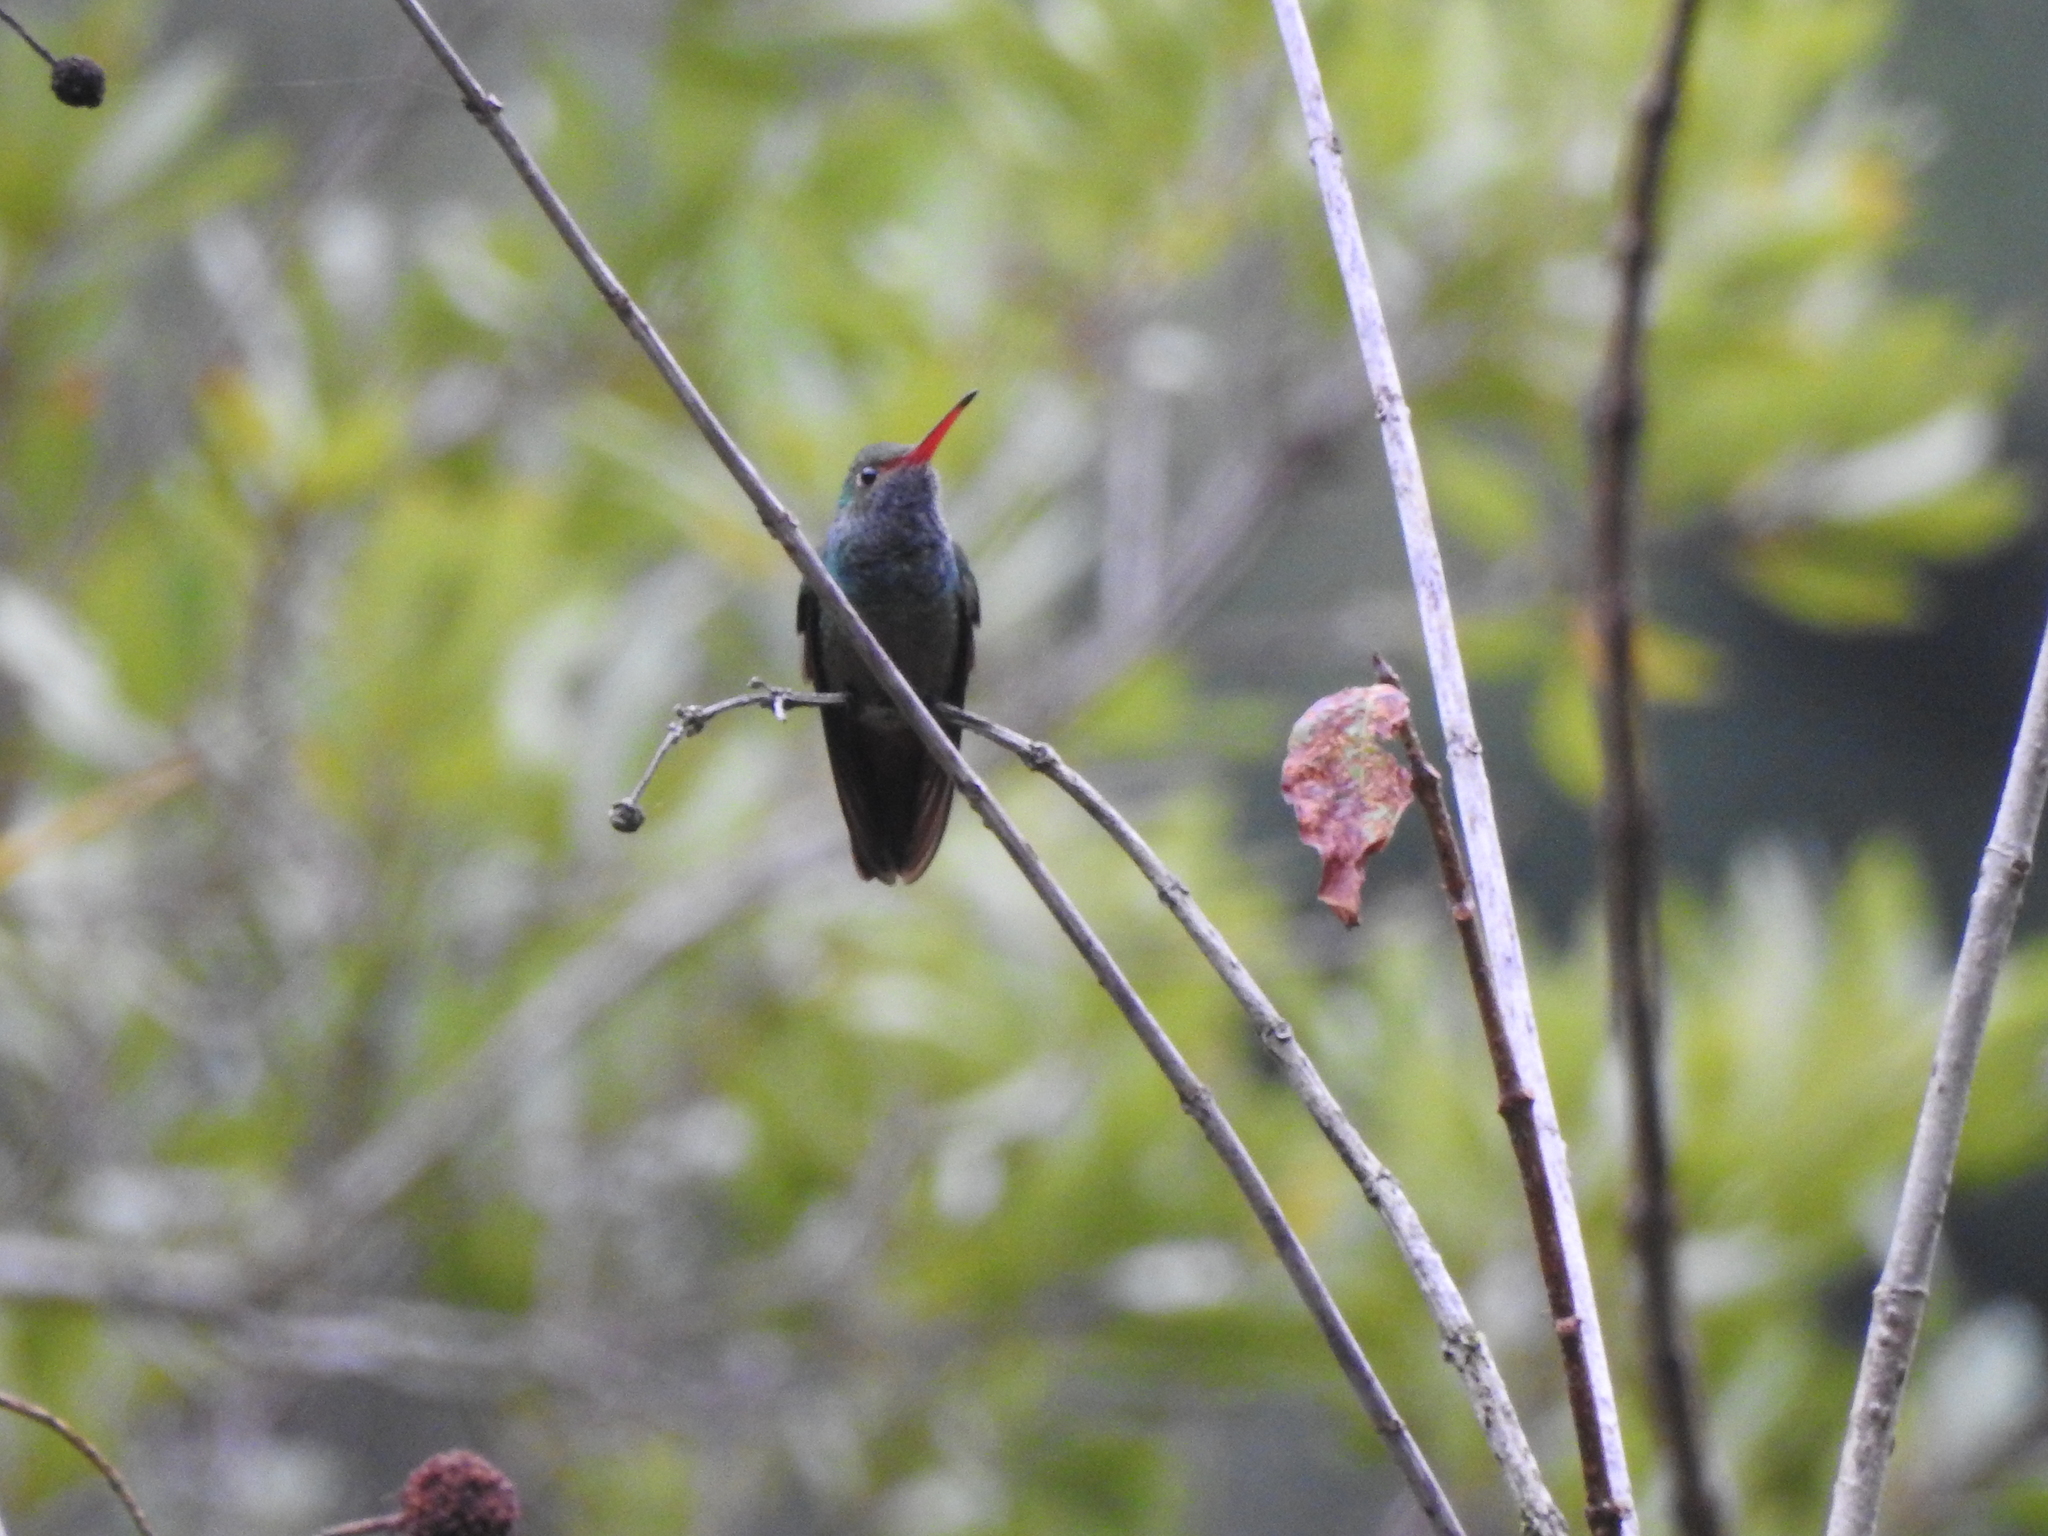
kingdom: Animalia
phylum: Chordata
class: Aves
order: Apodiformes
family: Trochilidae
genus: Chlorestes
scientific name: Chlorestes eliciae
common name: Blue-throated sapphire
